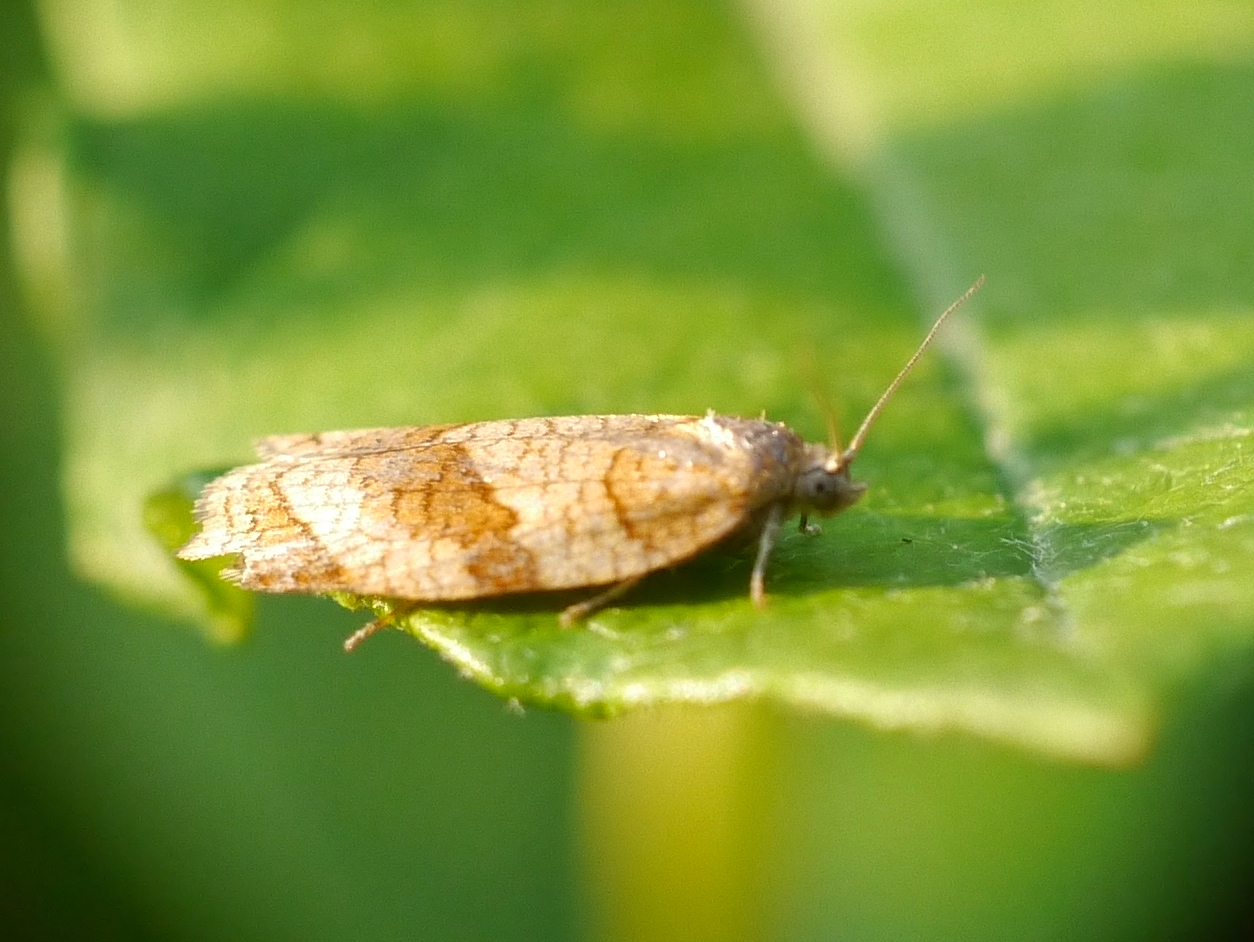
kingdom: Animalia
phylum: Arthropoda
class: Insecta
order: Lepidoptera
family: Tortricidae
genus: Choristoneura
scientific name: Choristoneura albaniana
